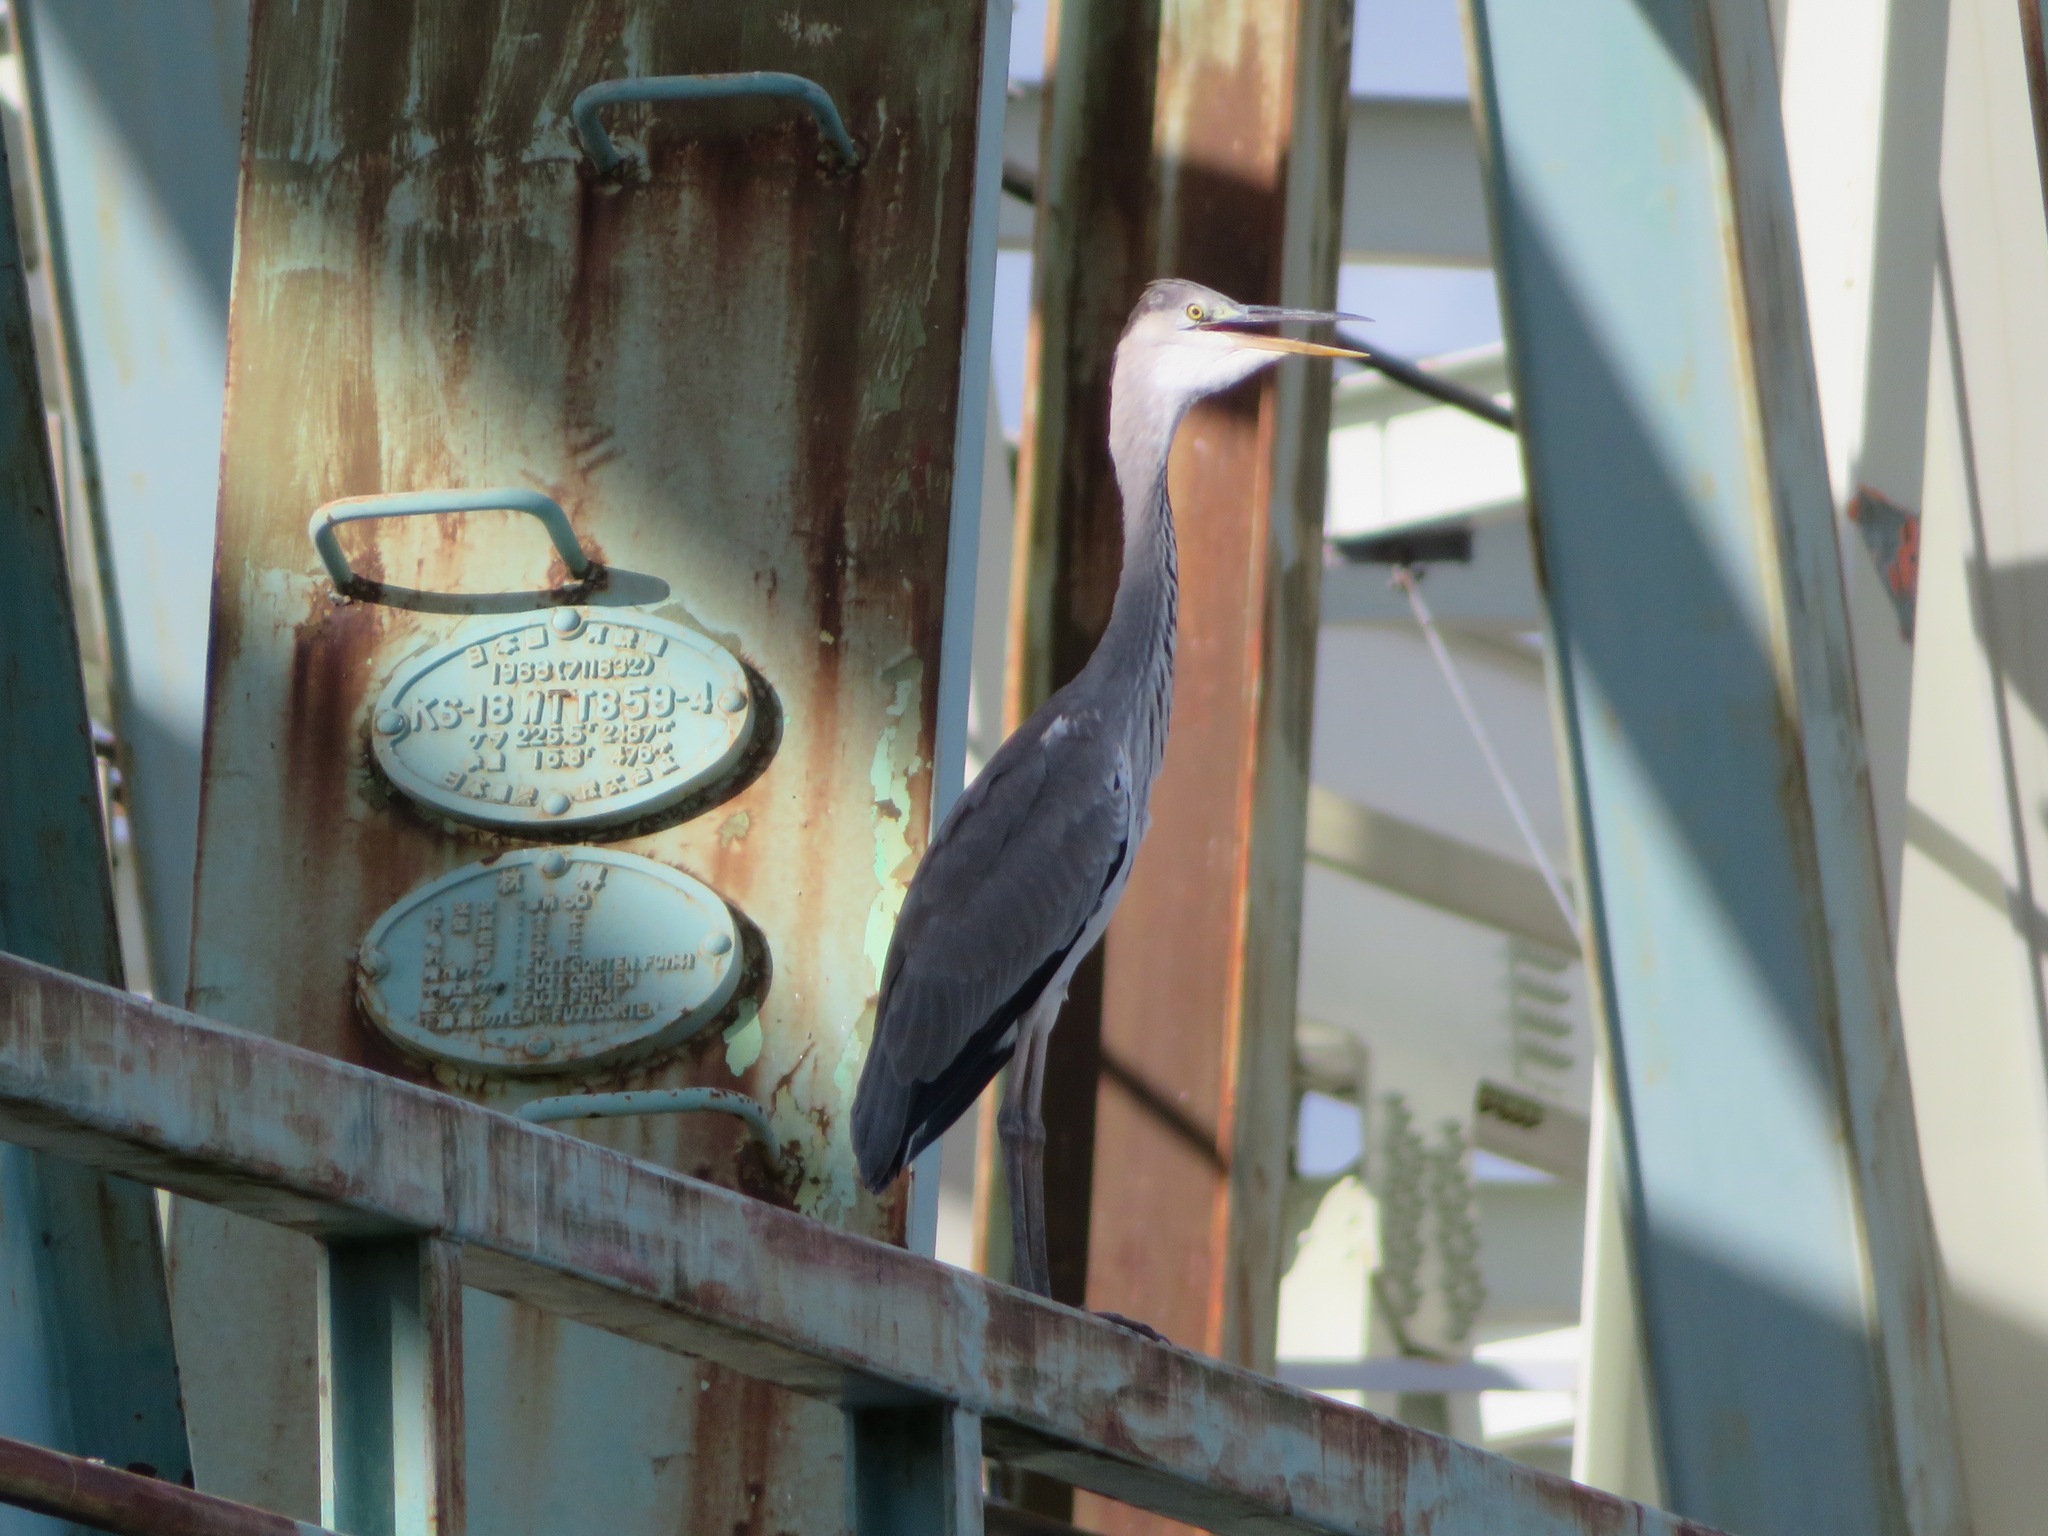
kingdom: Animalia
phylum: Chordata
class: Aves
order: Pelecaniformes
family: Ardeidae
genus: Ardea
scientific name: Ardea cinerea
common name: Grey heron
